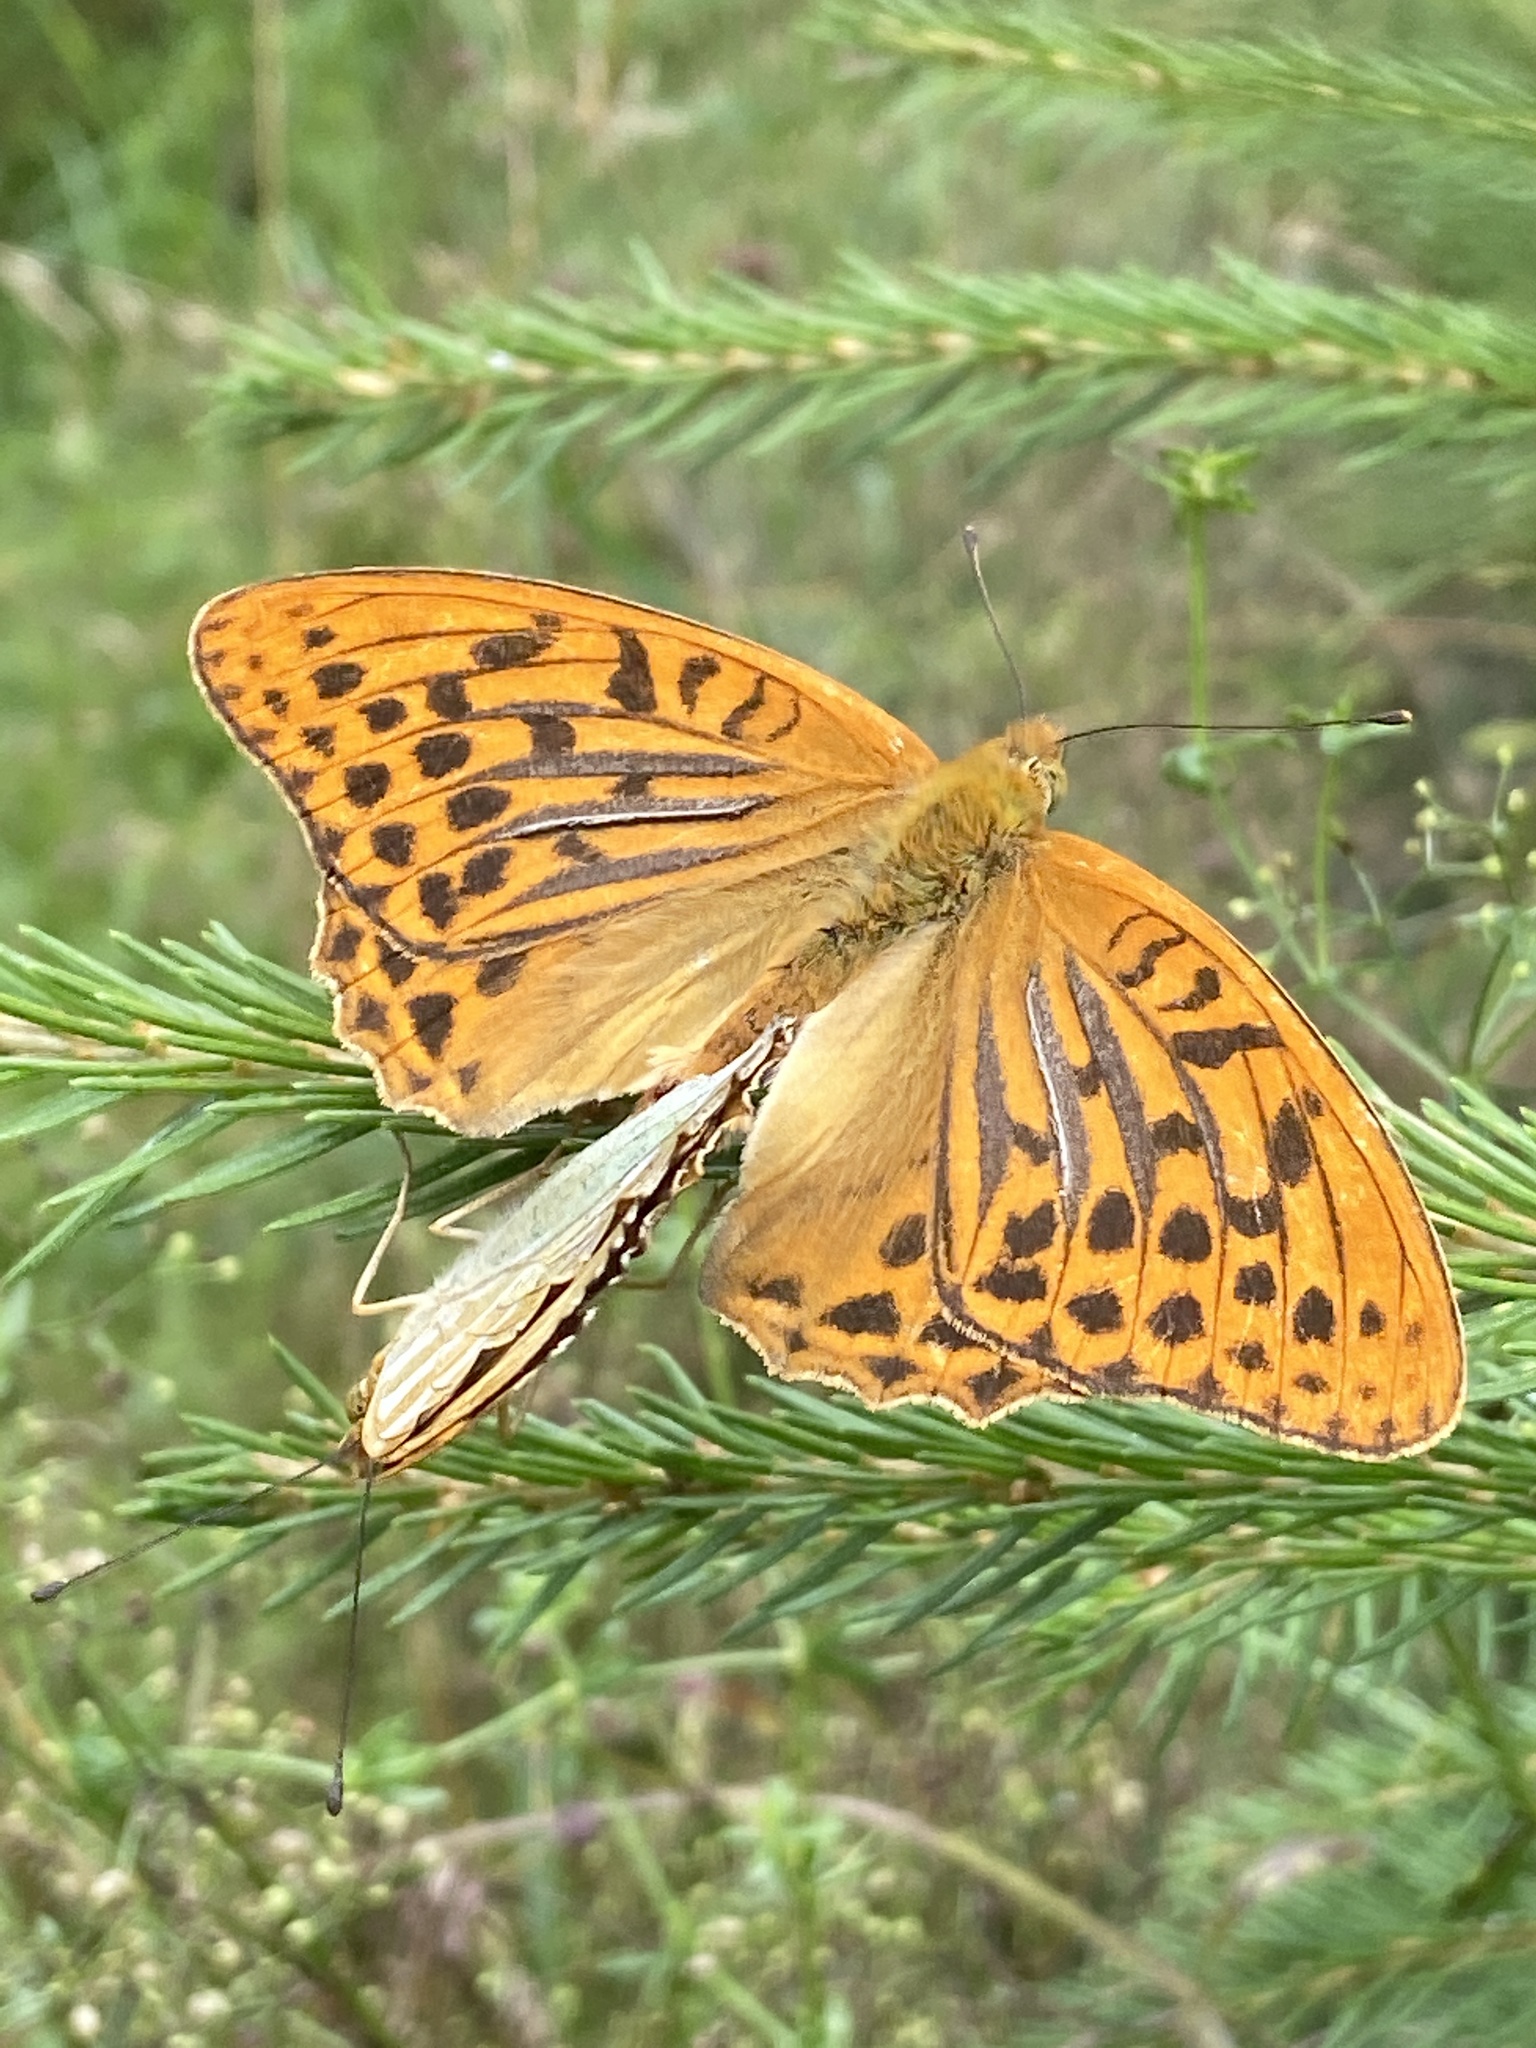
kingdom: Animalia
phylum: Arthropoda
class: Insecta
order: Lepidoptera
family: Nymphalidae
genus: Argynnis
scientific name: Argynnis paphia
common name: Silver-washed fritillary
